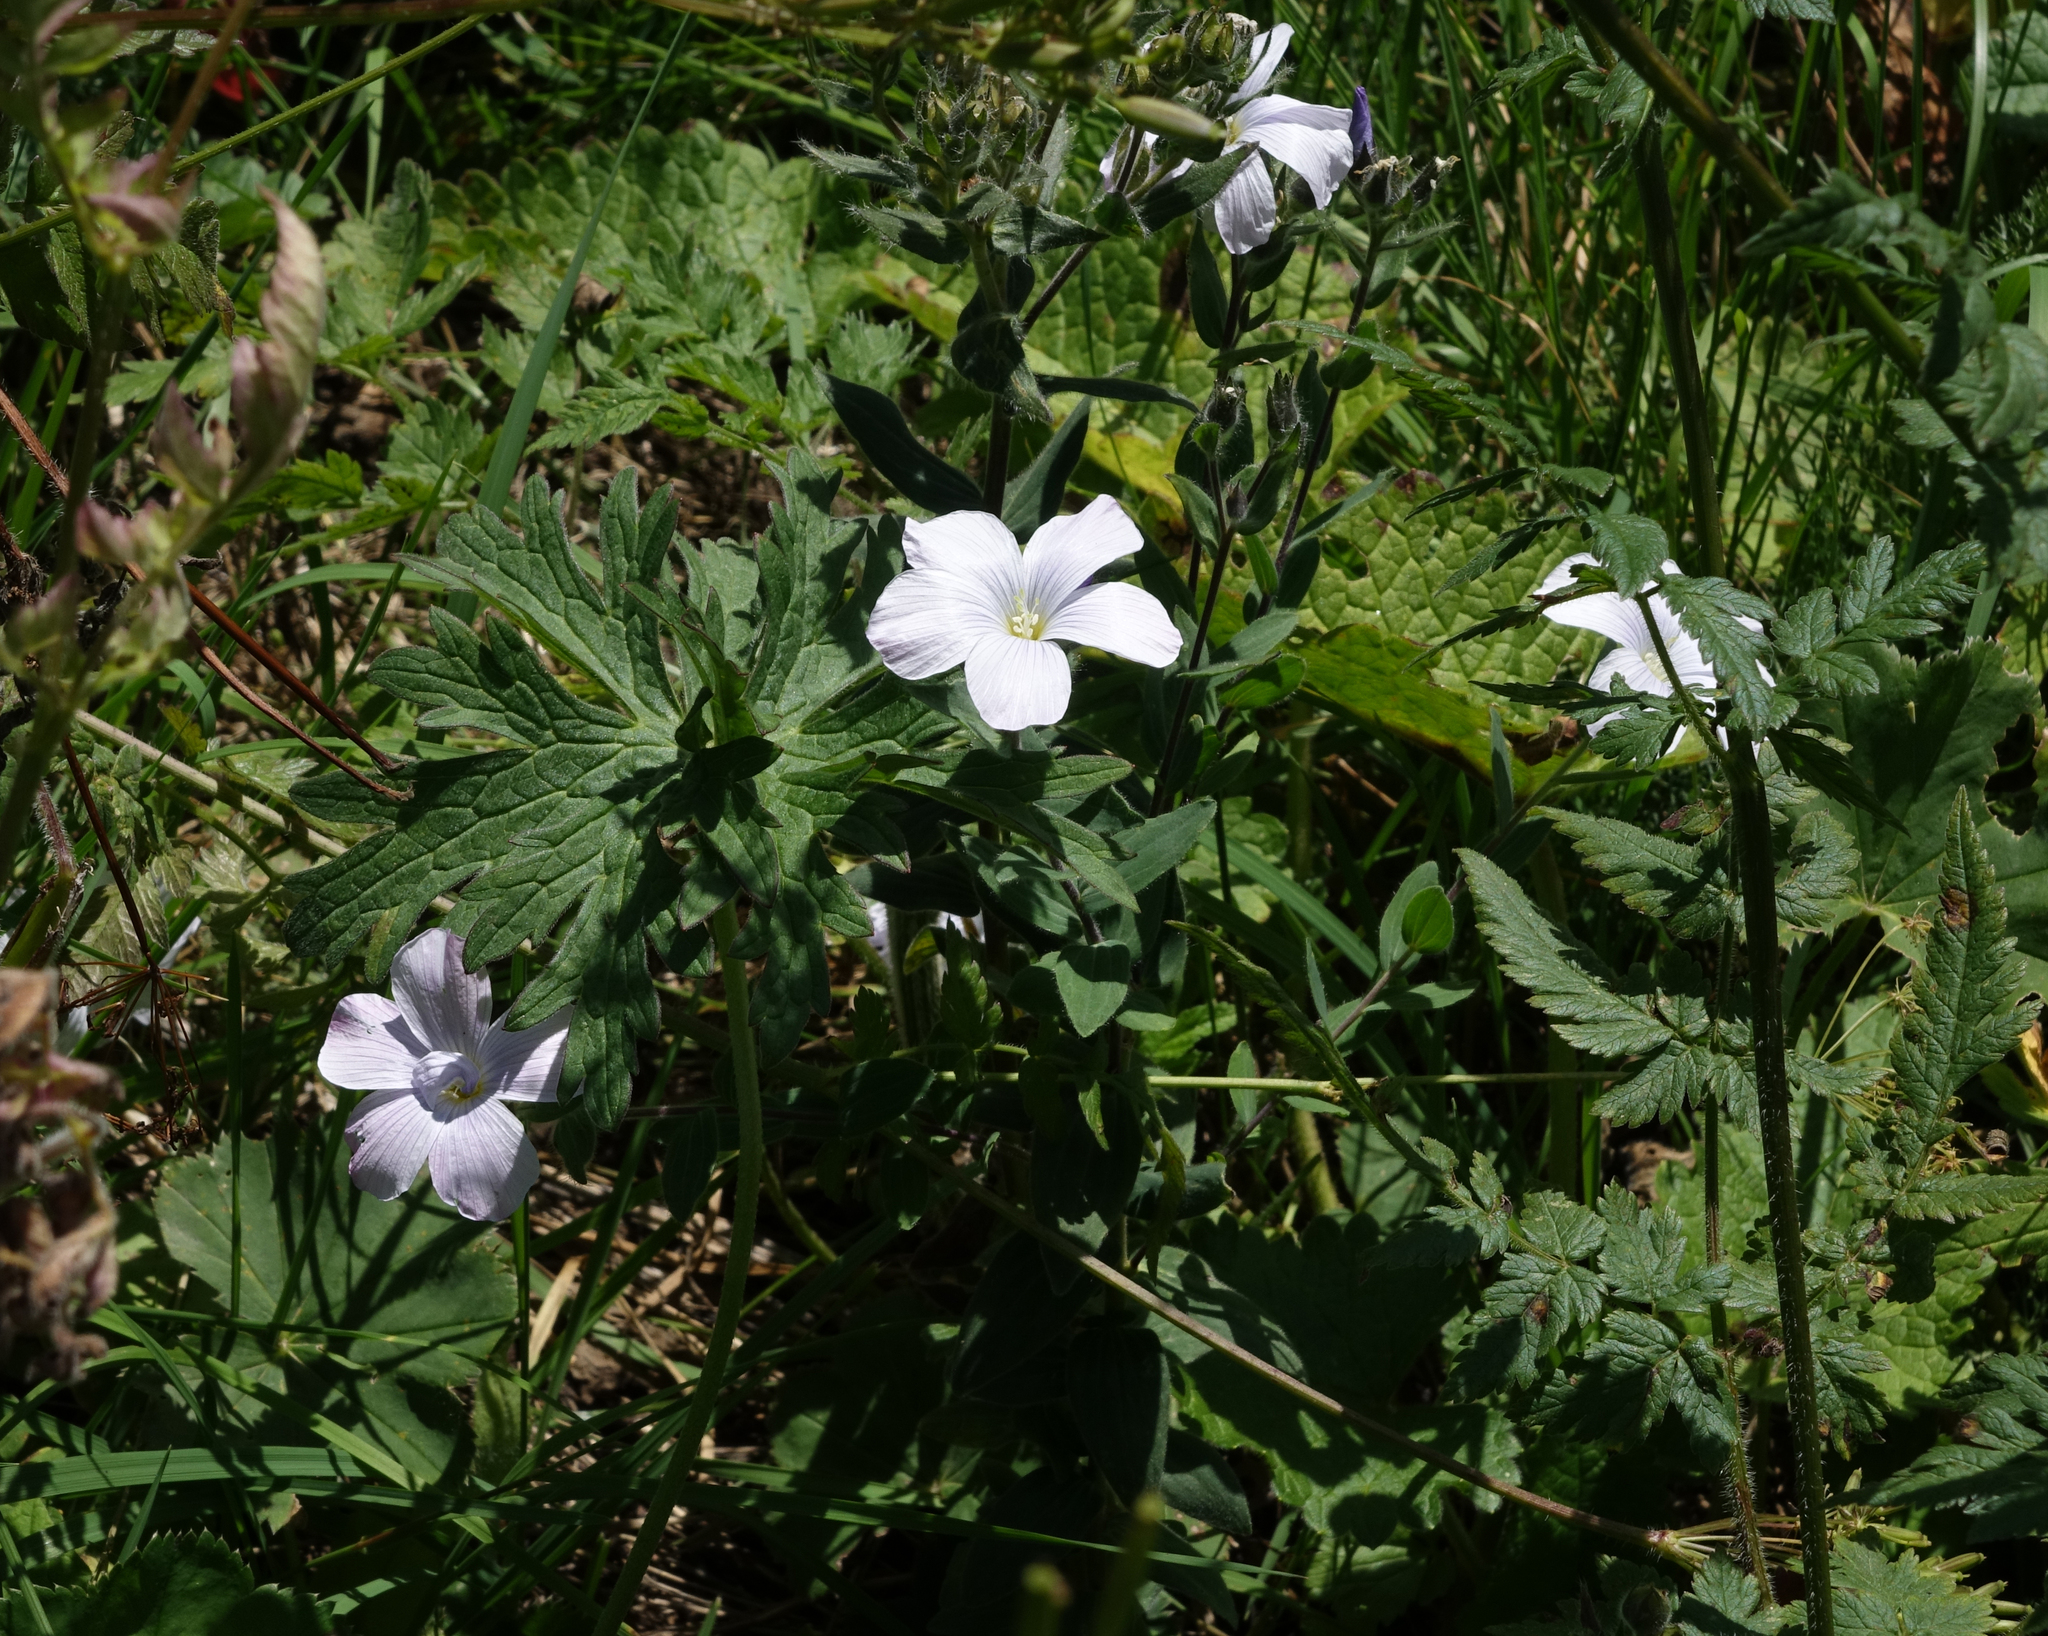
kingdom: Plantae
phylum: Tracheophyta
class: Magnoliopsida
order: Malpighiales
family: Linaceae
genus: Linum
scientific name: Linum hypericifolium
